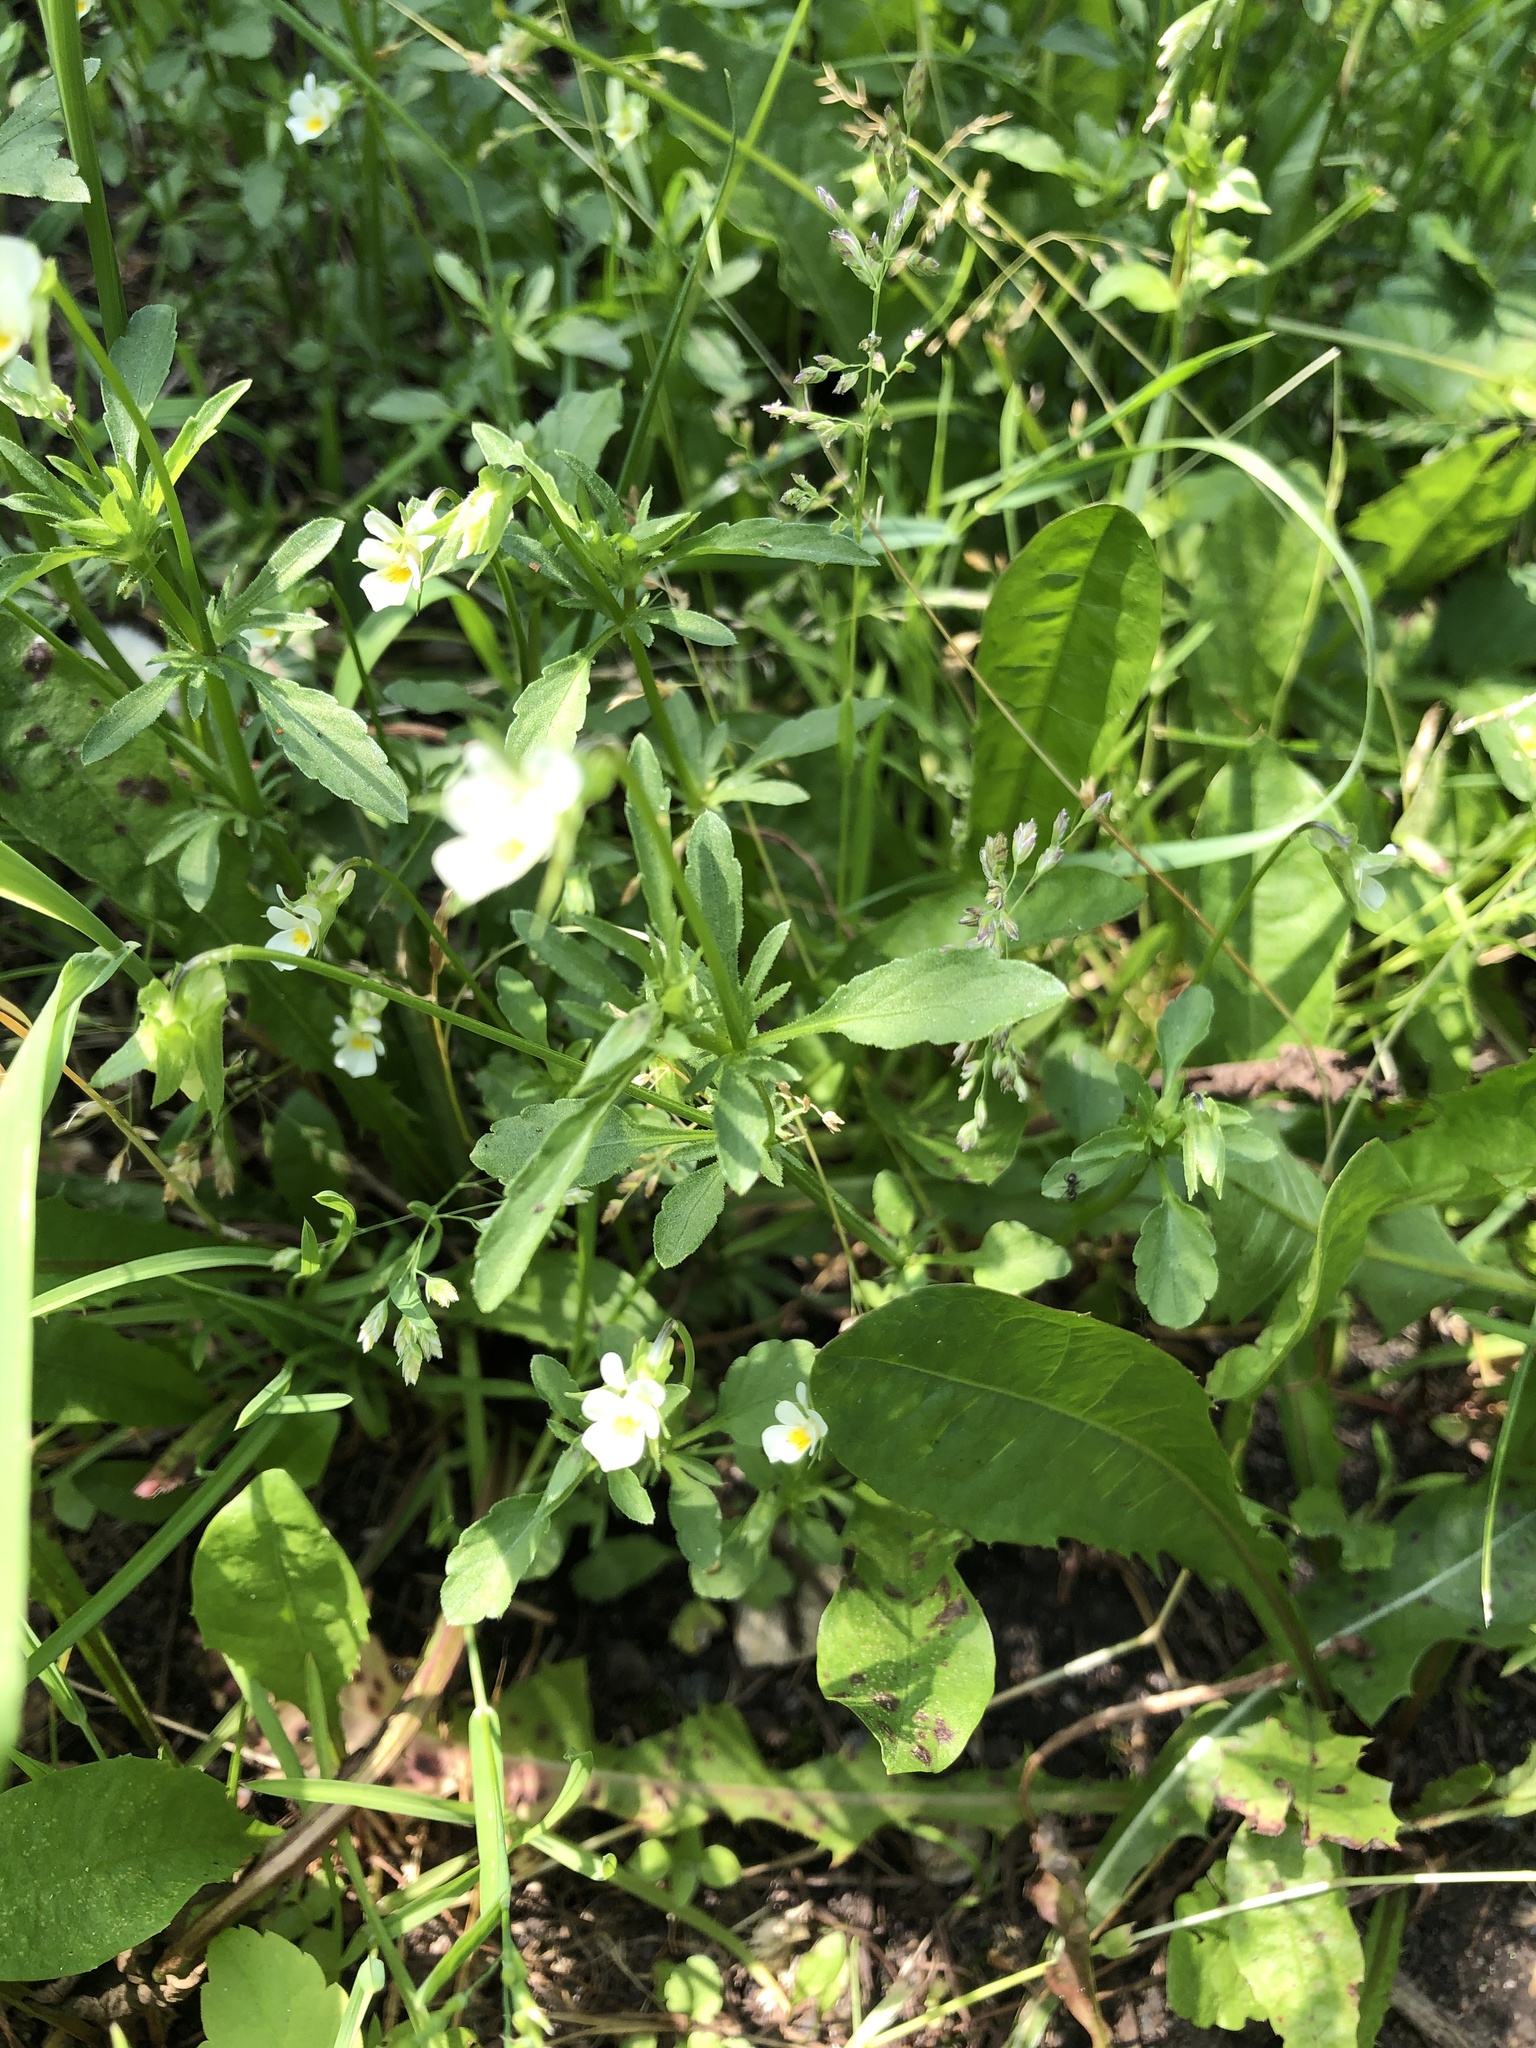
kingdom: Plantae
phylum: Tracheophyta
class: Magnoliopsida
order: Malpighiales
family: Violaceae
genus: Viola
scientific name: Viola arvensis
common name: Field pansy
